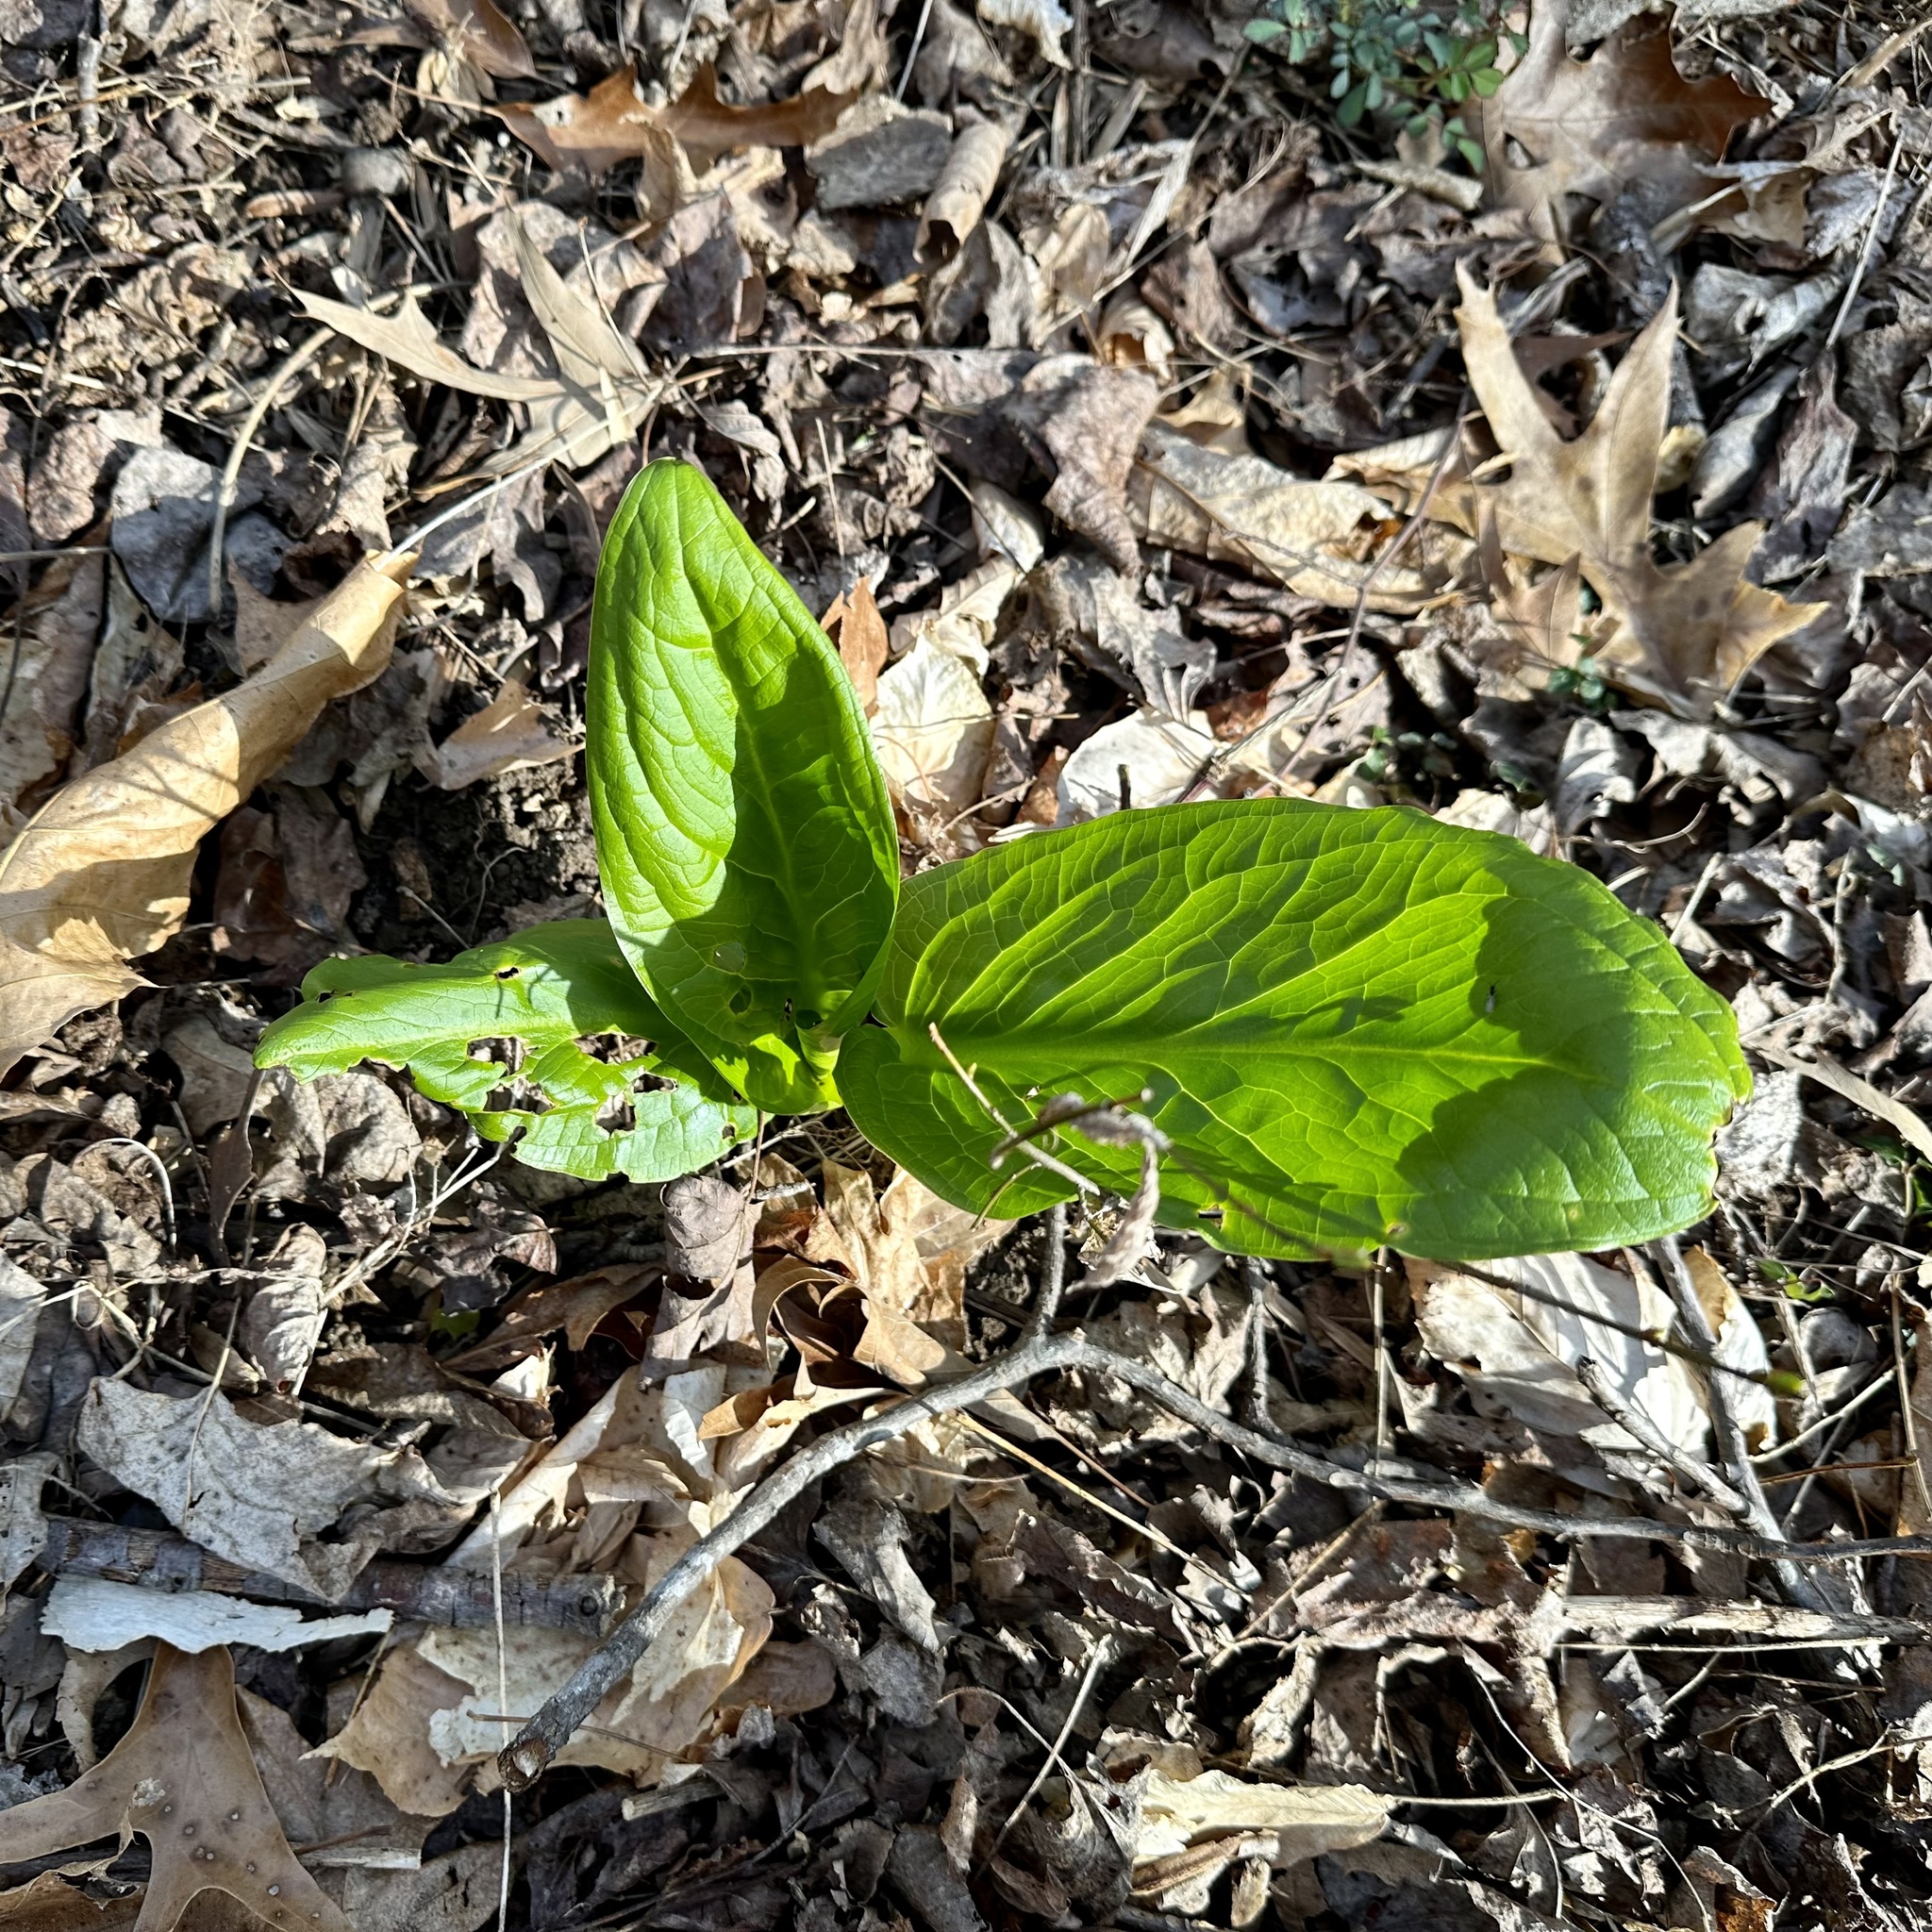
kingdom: Plantae
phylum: Tracheophyta
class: Liliopsida
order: Alismatales
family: Araceae
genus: Symplocarpus
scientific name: Symplocarpus foetidus
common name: Eastern skunk cabbage
